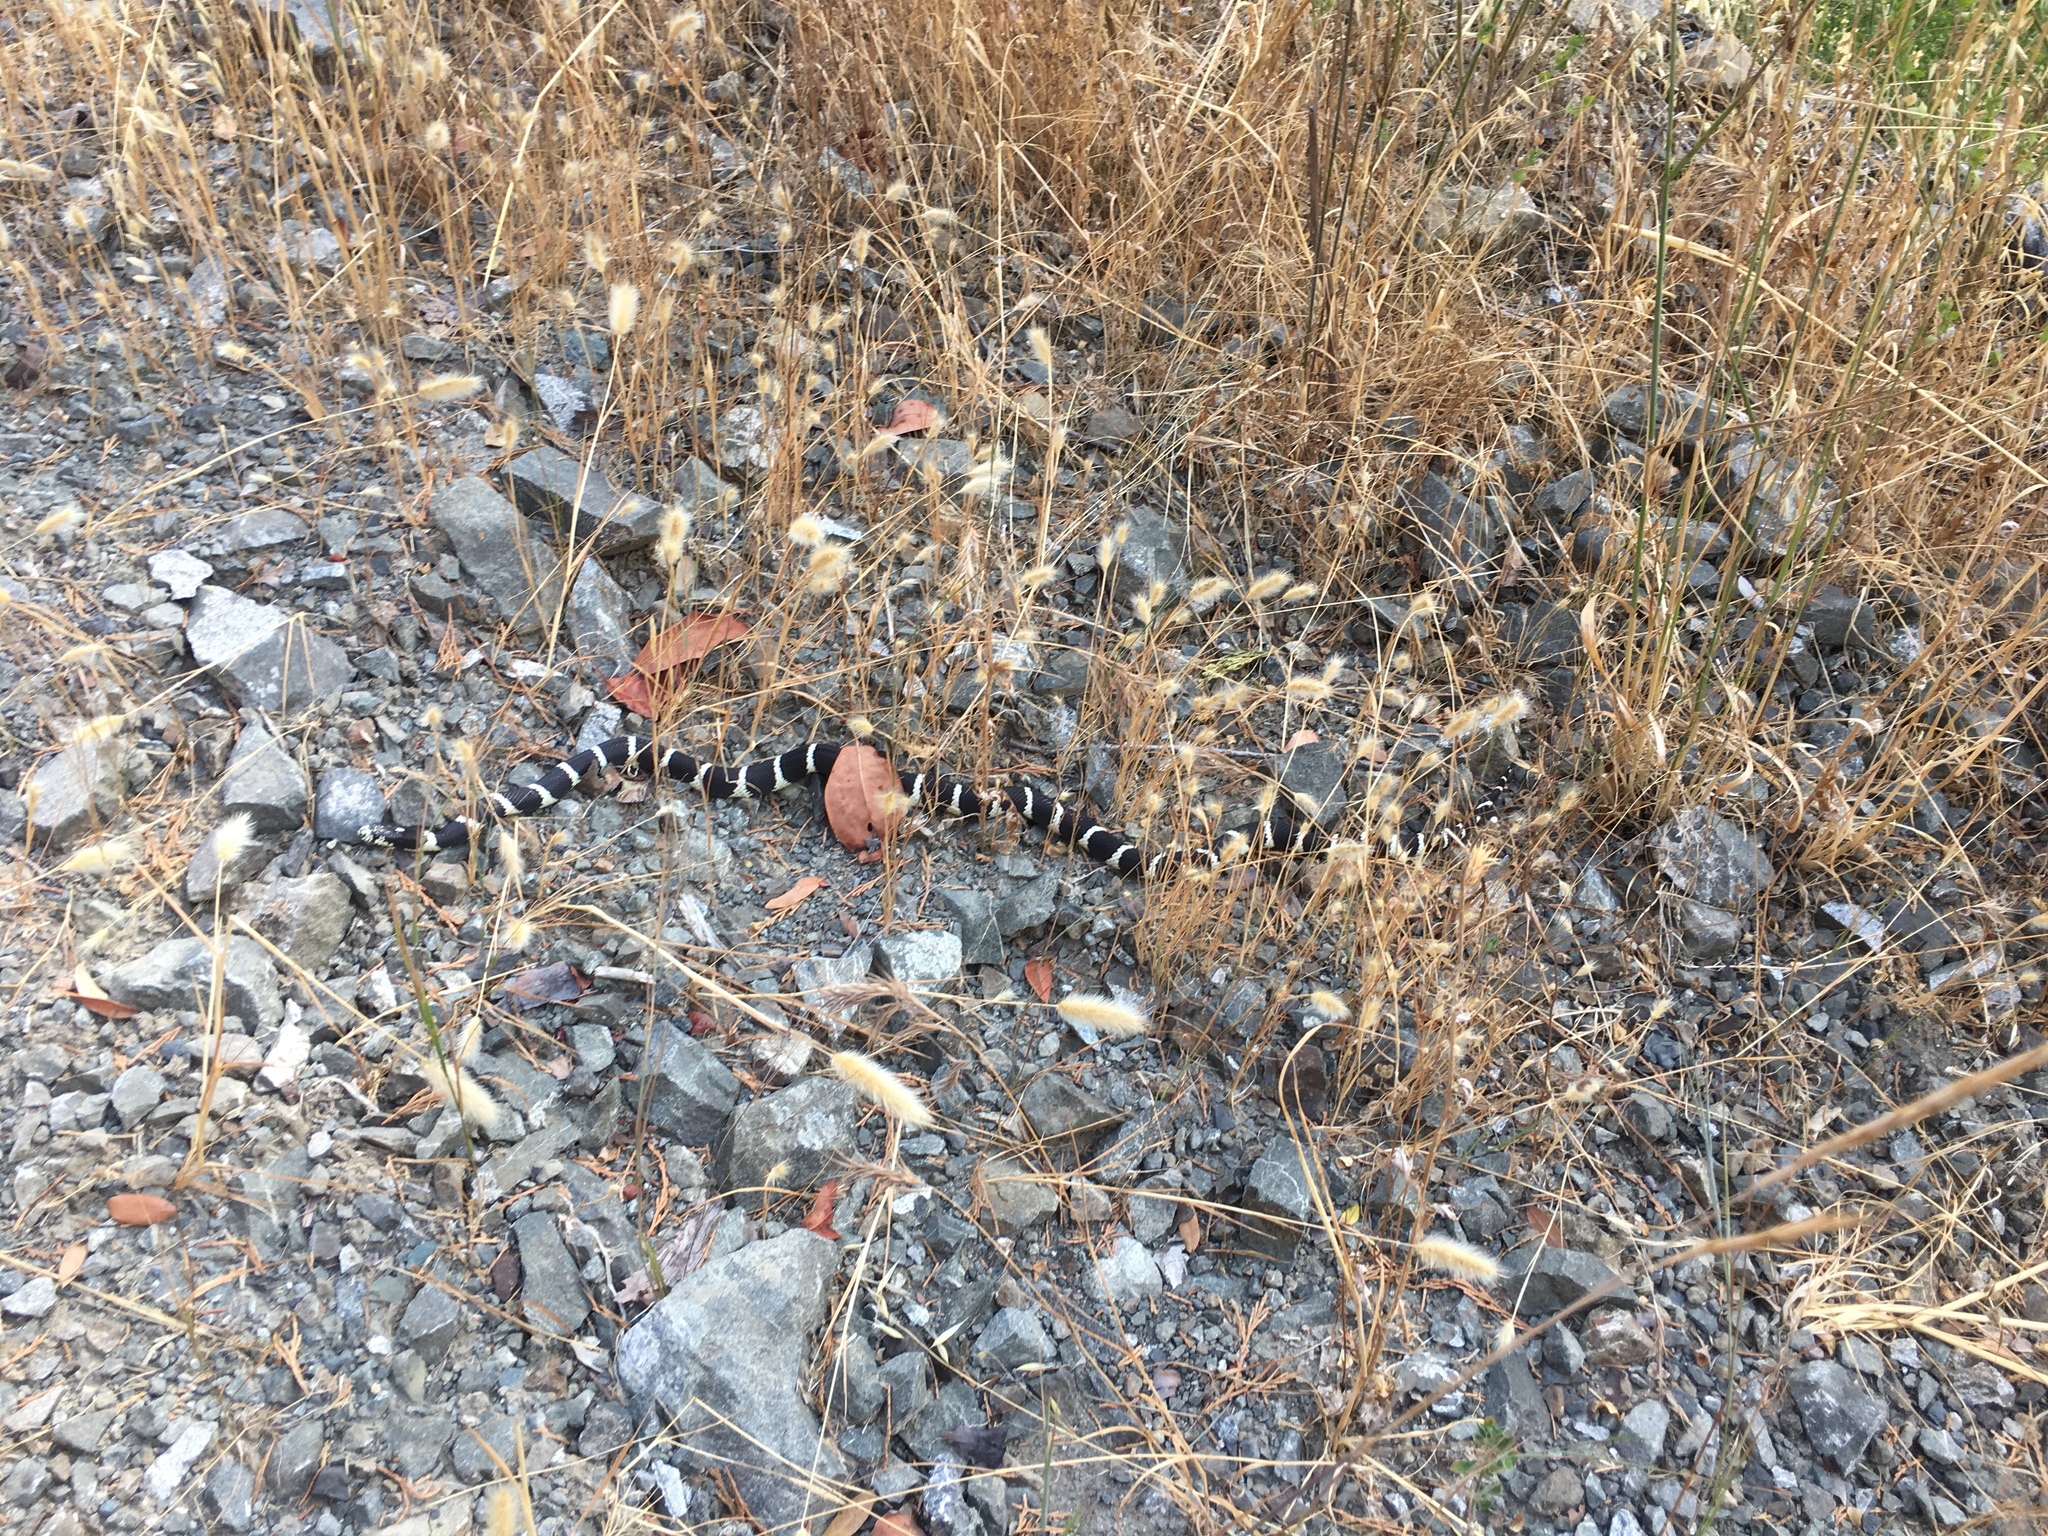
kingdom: Animalia
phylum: Chordata
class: Squamata
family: Colubridae
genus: Lampropeltis
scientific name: Lampropeltis californiae
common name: California kingsnake
